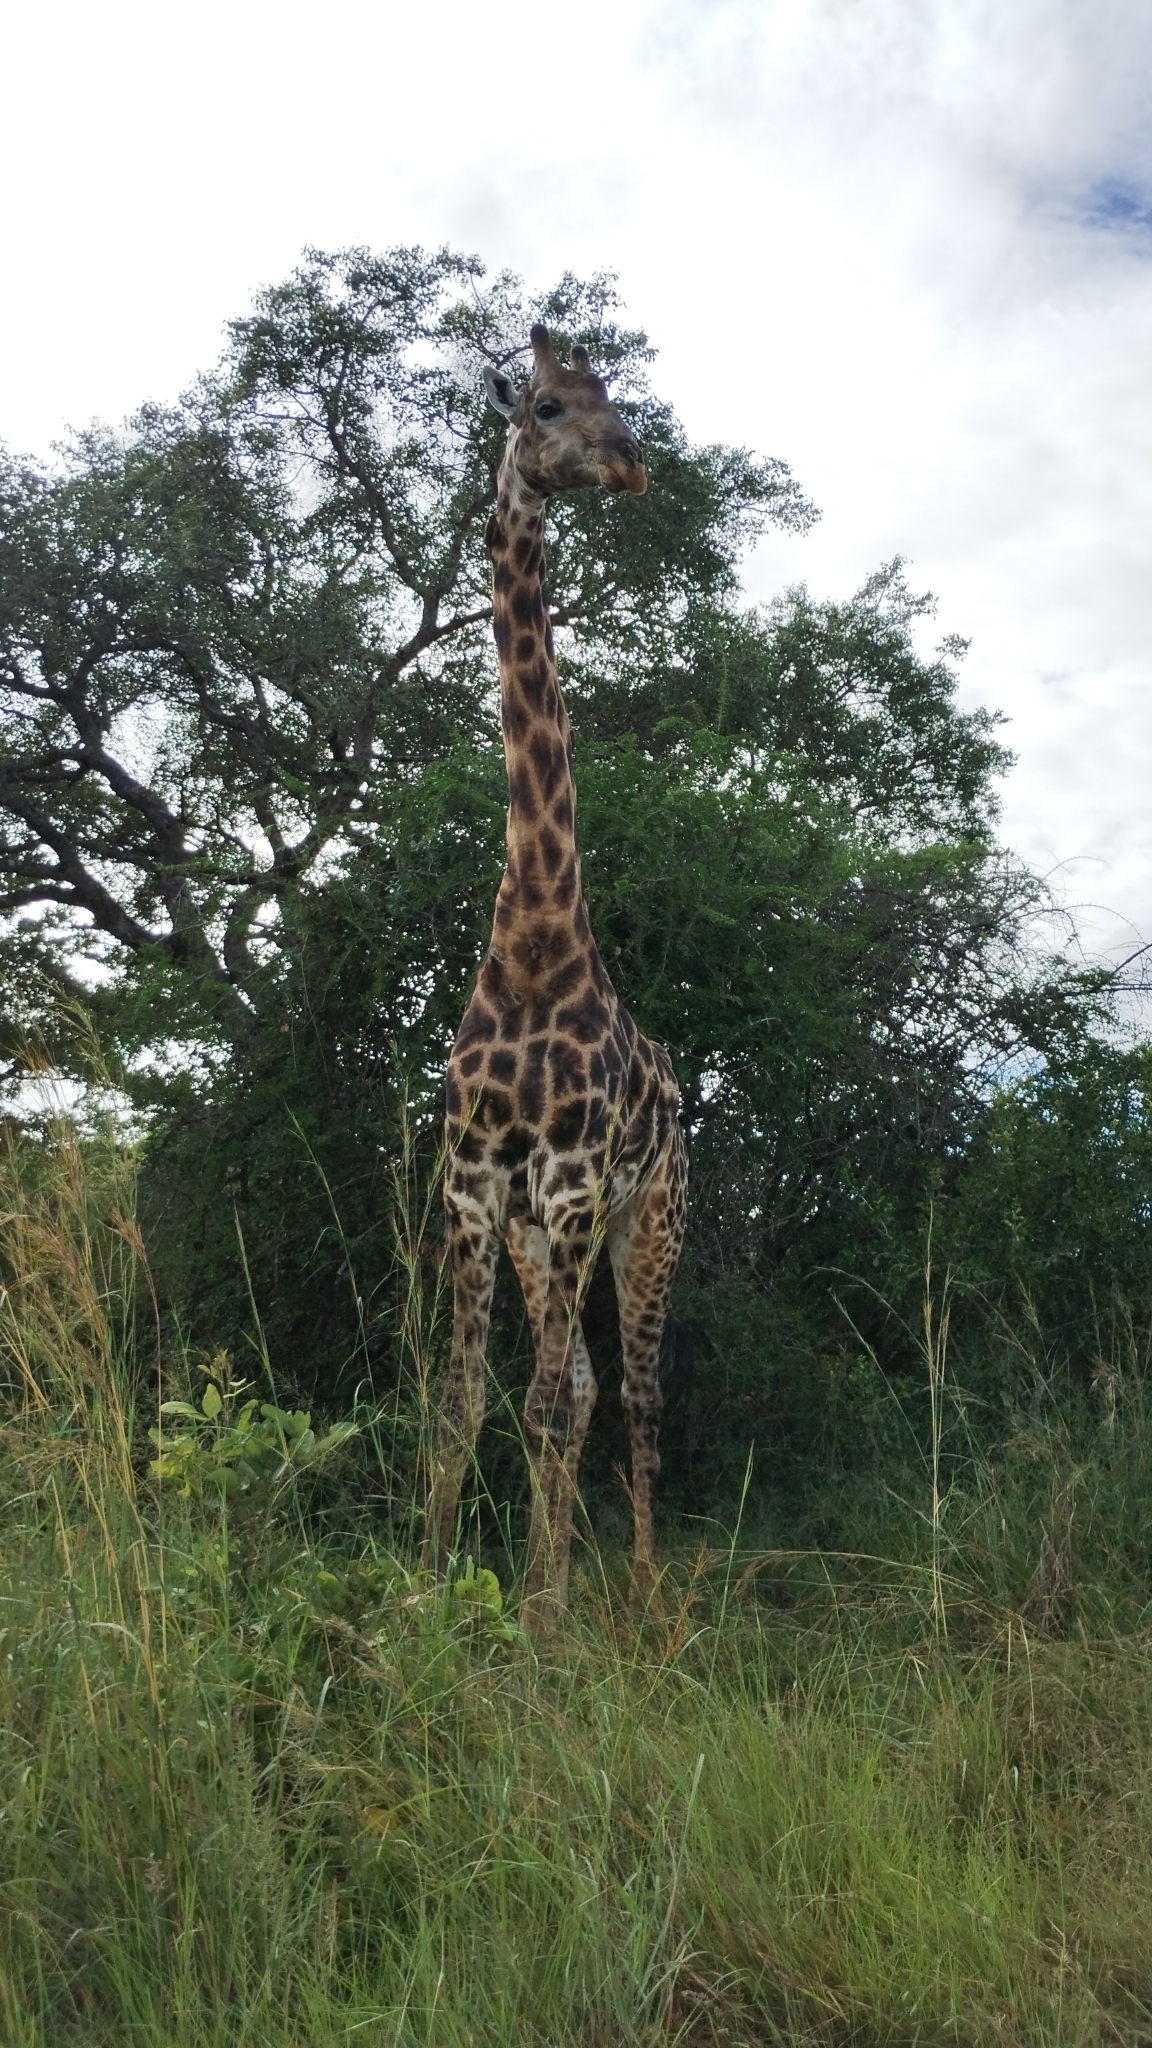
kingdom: Animalia
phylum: Chordata
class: Mammalia
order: Artiodactyla
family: Giraffidae
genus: Giraffa
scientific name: Giraffa giraffa
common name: Southern giraffe
